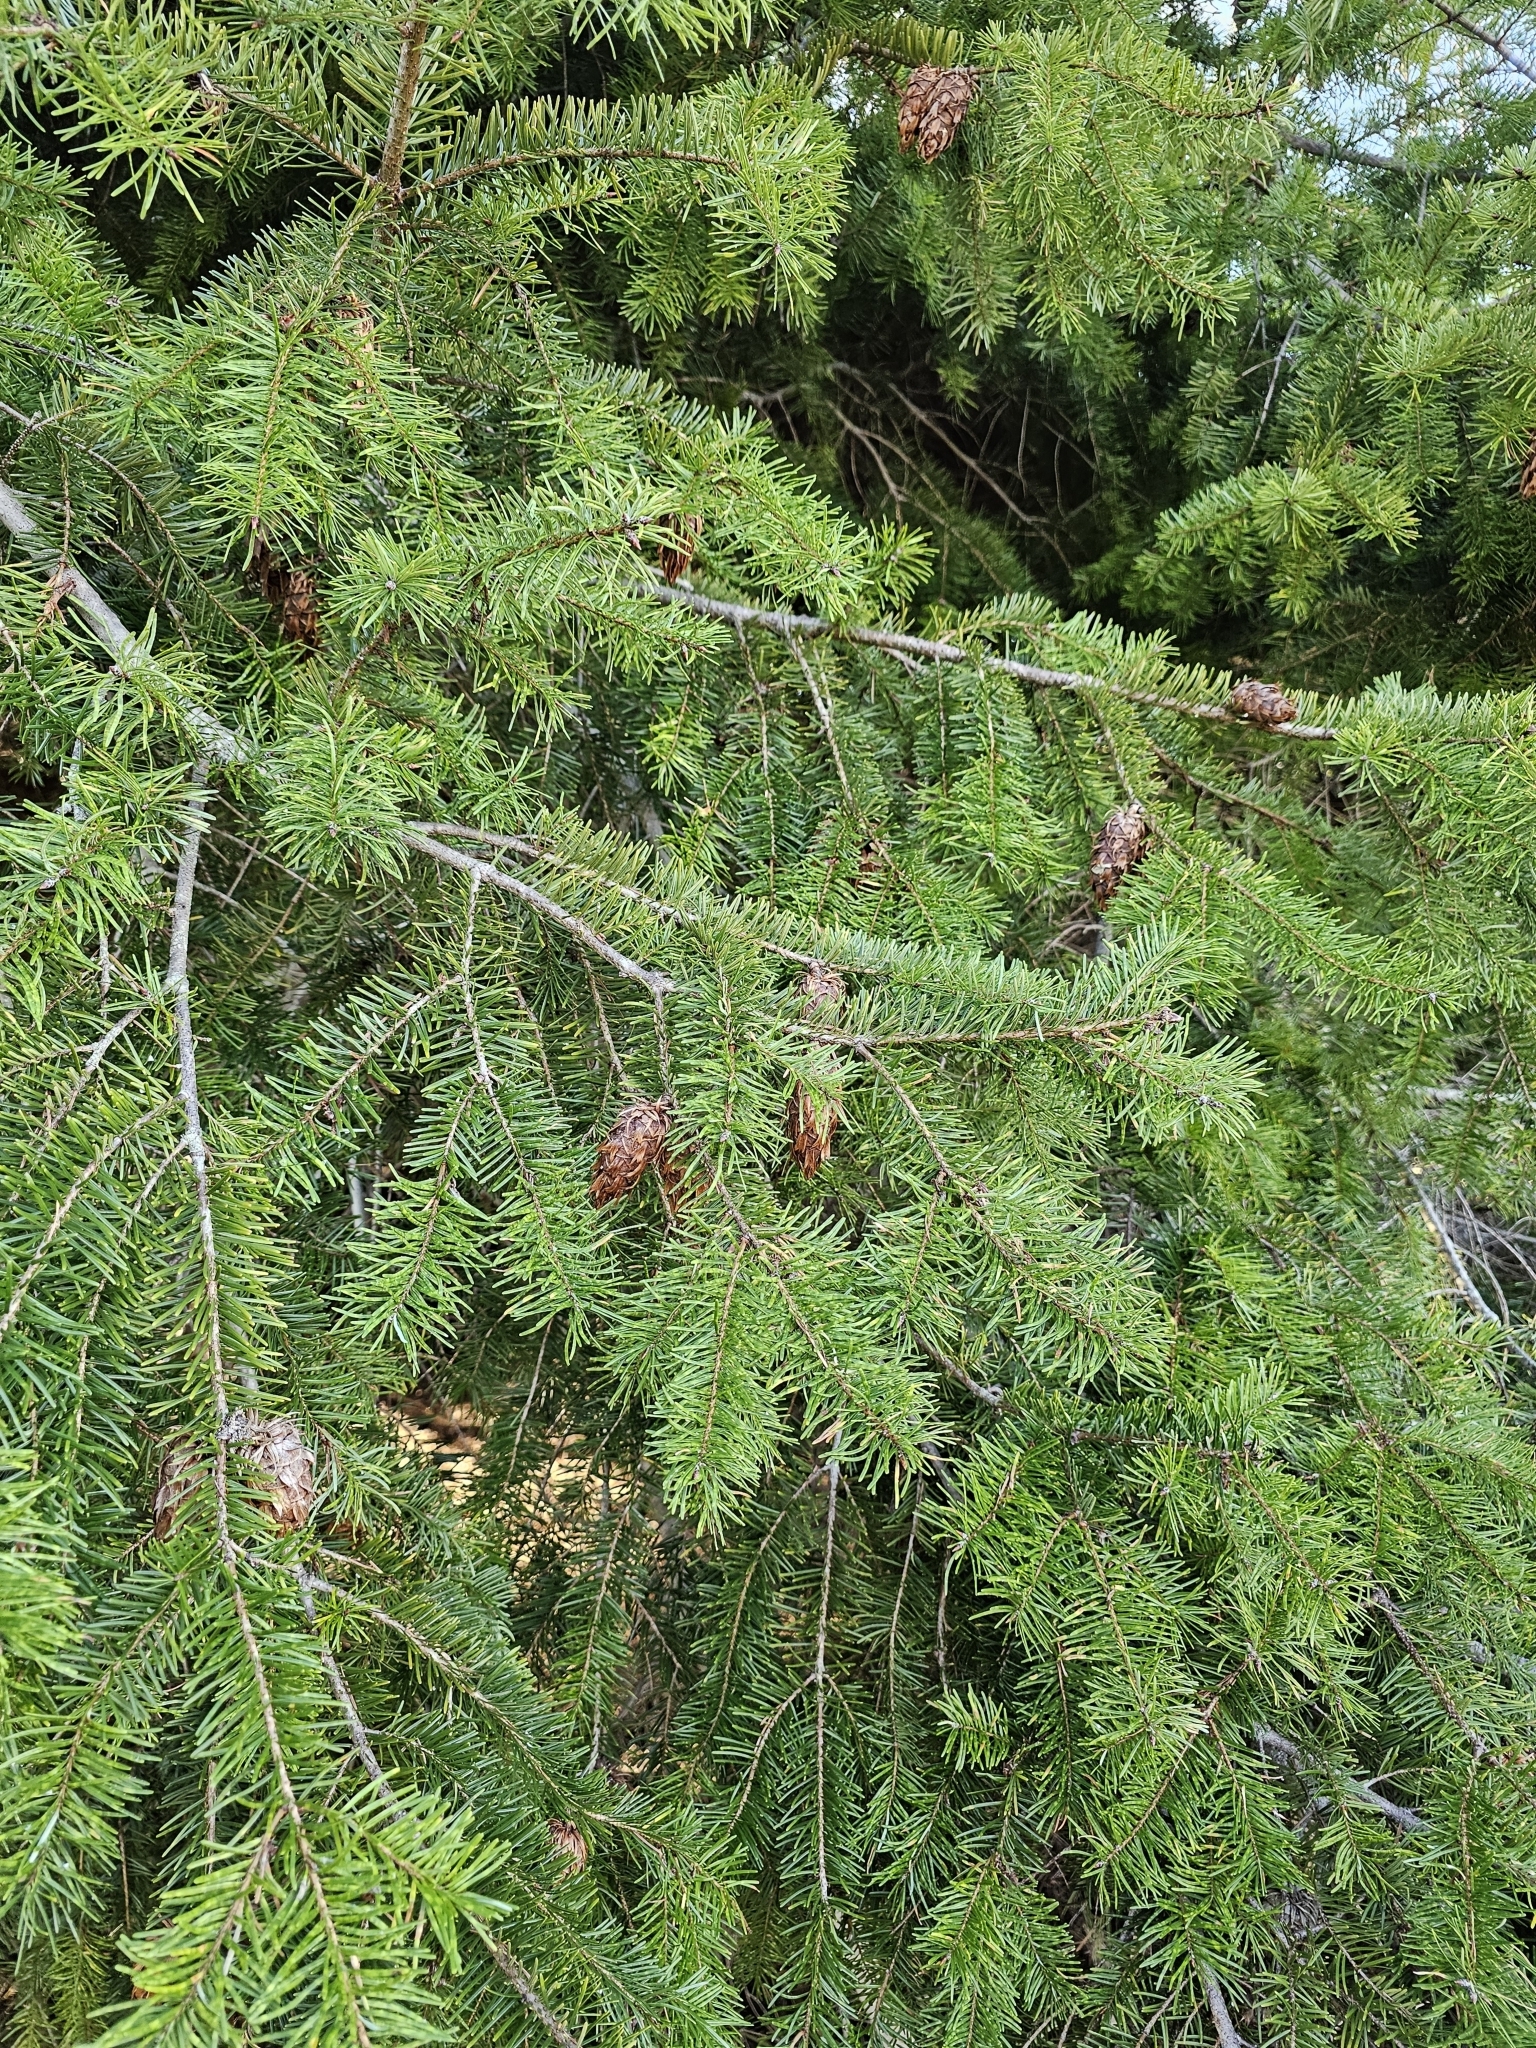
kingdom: Plantae
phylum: Tracheophyta
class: Pinopsida
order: Pinales
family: Pinaceae
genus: Pseudotsuga
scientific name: Pseudotsuga menziesii
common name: Douglas fir
